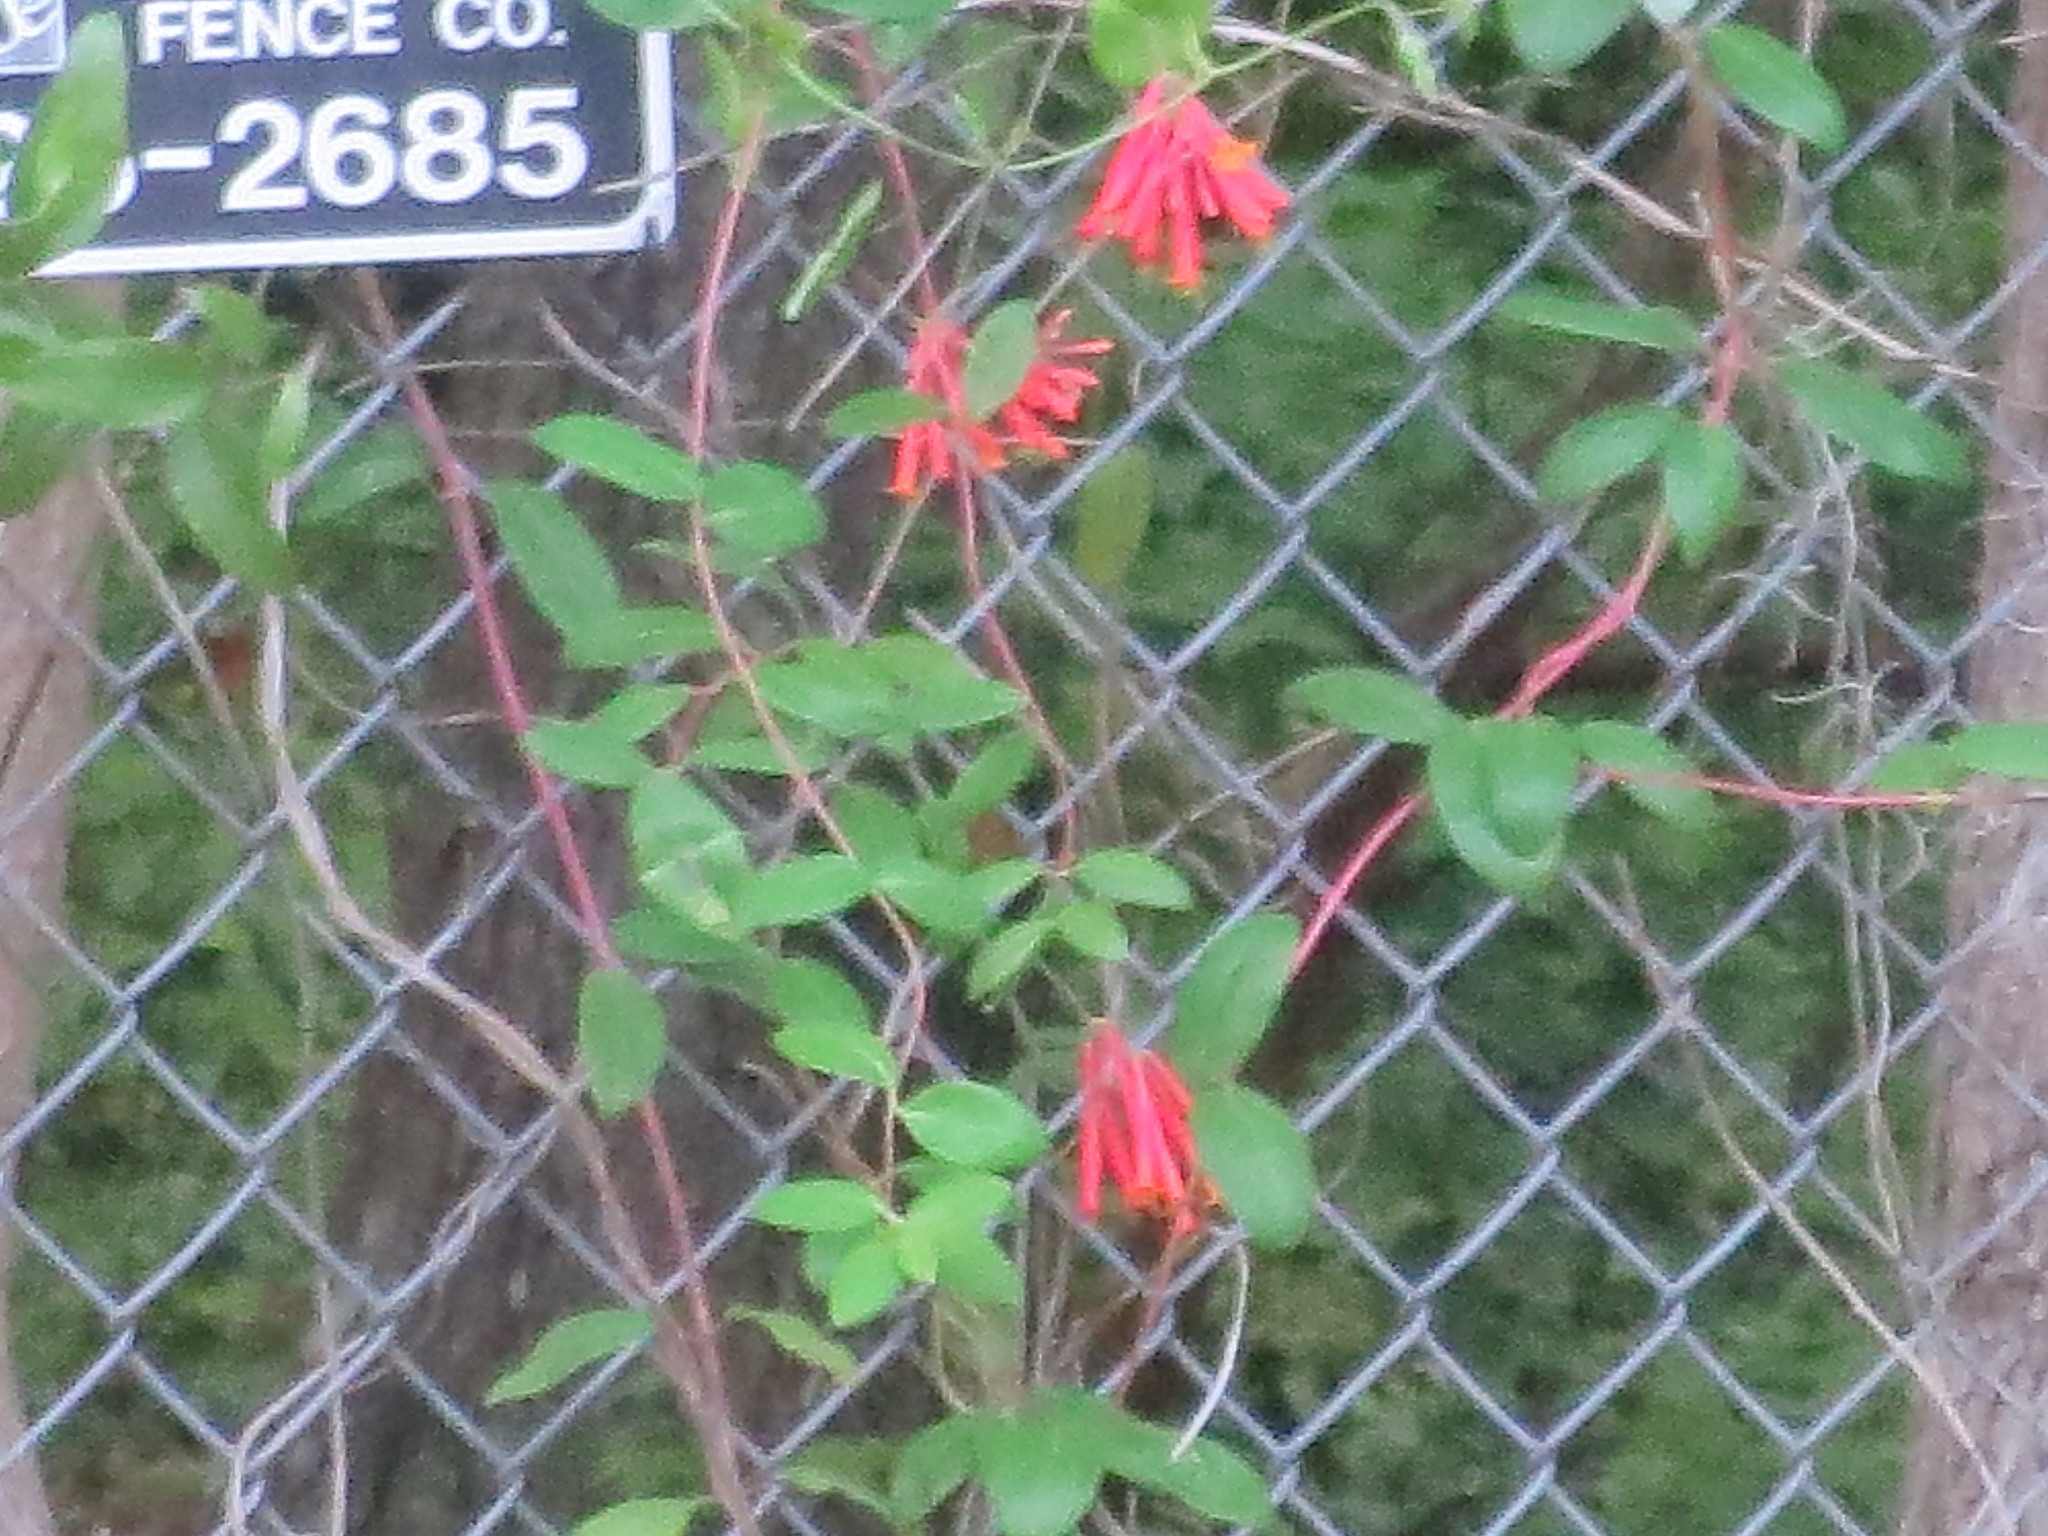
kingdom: Plantae
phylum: Tracheophyta
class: Magnoliopsida
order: Dipsacales
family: Caprifoliaceae
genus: Lonicera
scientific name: Lonicera sempervirens
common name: Coral honeysuckle
